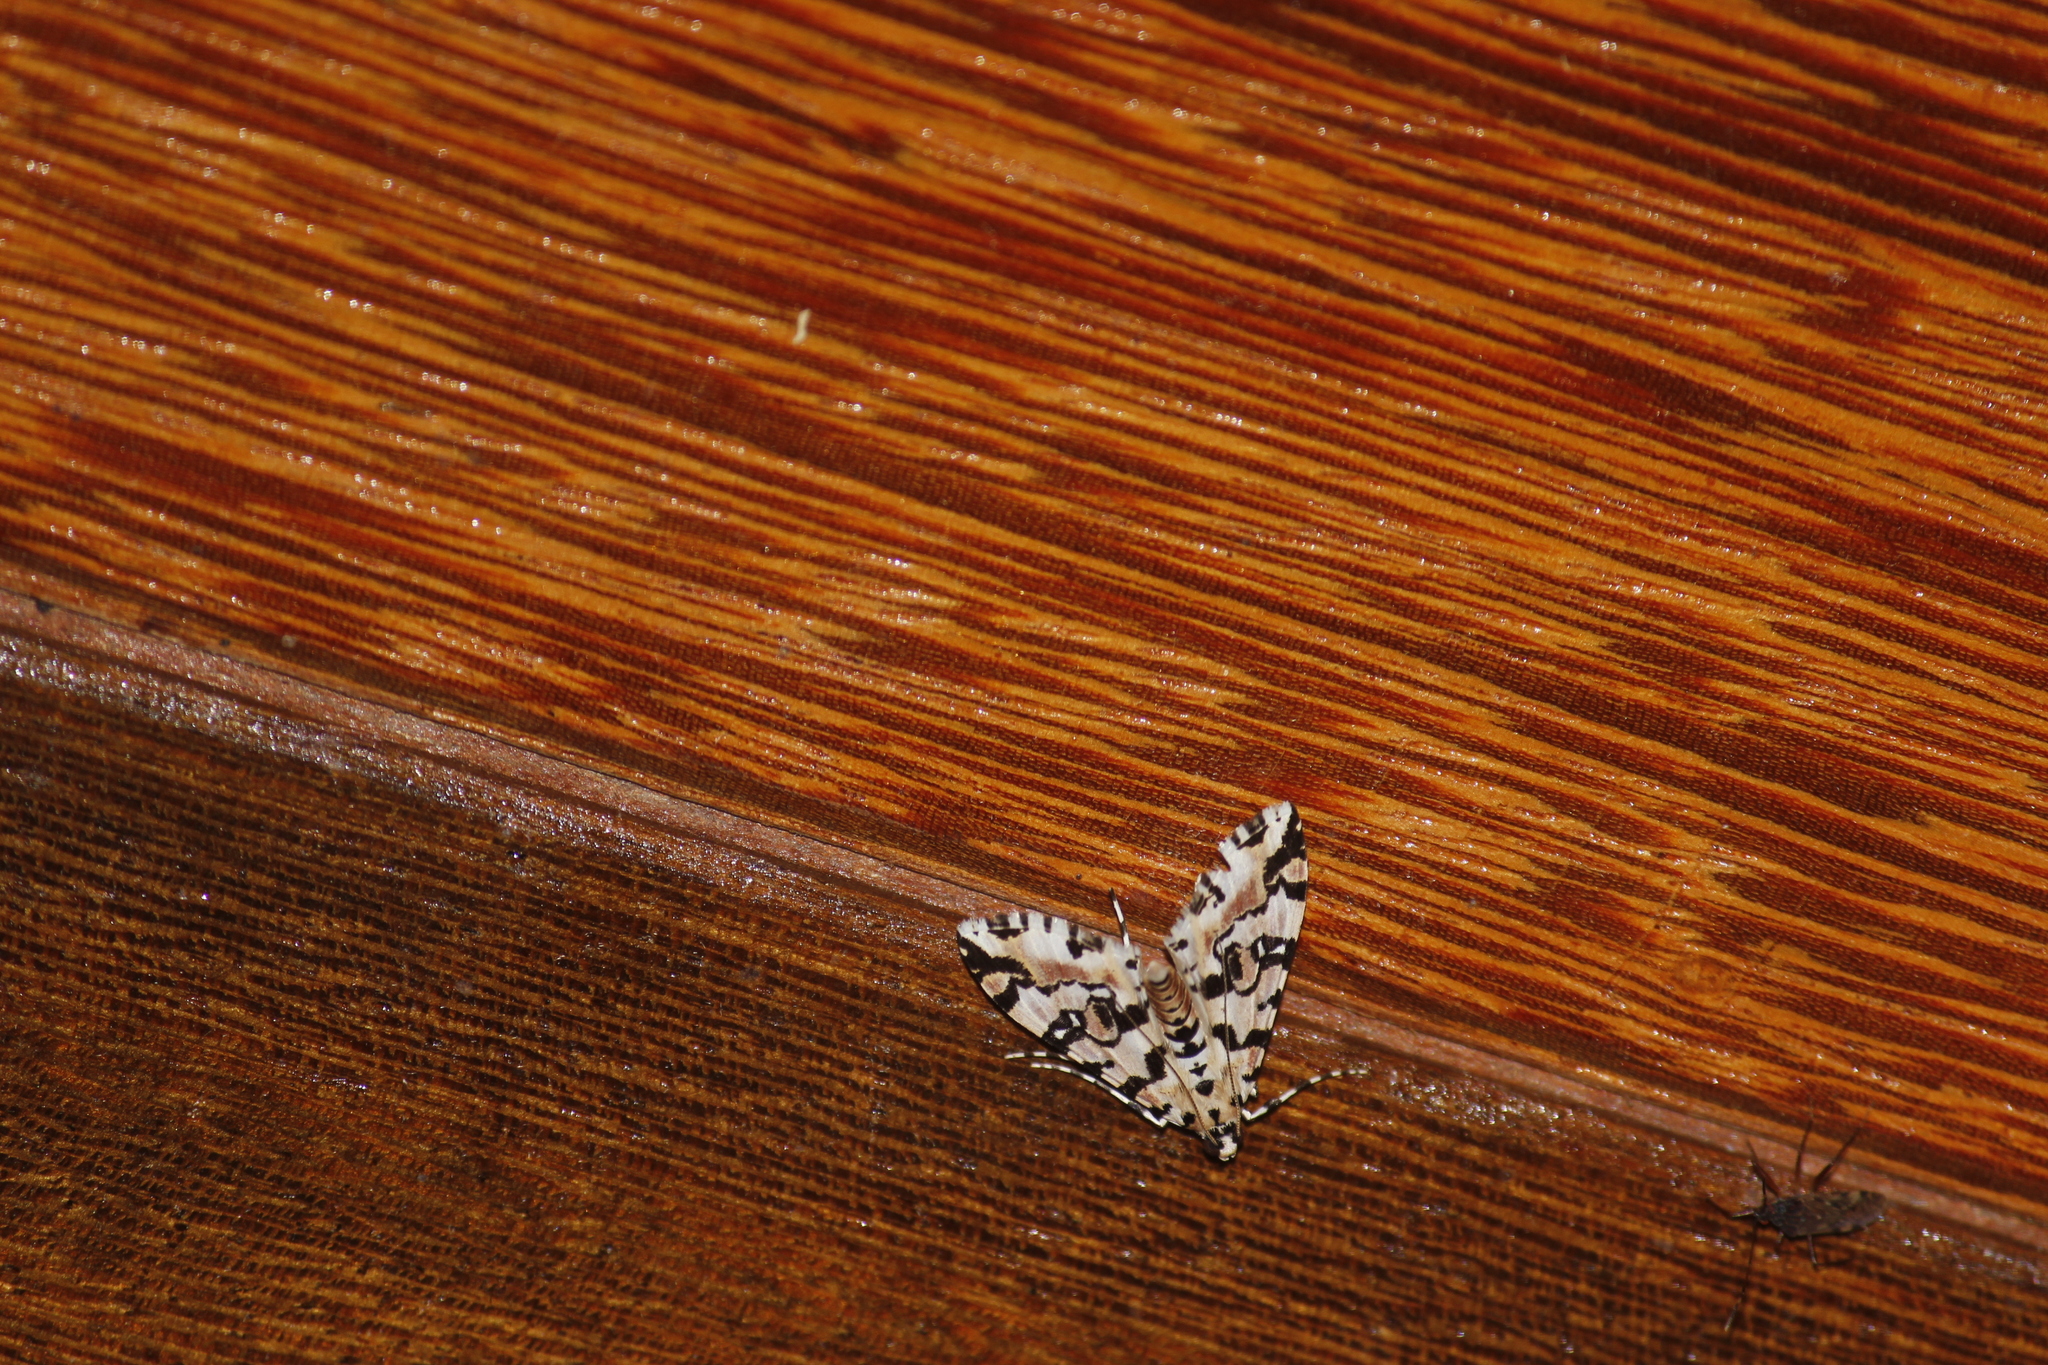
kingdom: Animalia
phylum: Arthropoda
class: Insecta
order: Lepidoptera
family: Crambidae
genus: Conchylodes
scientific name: Conchylodes bryophilalis
